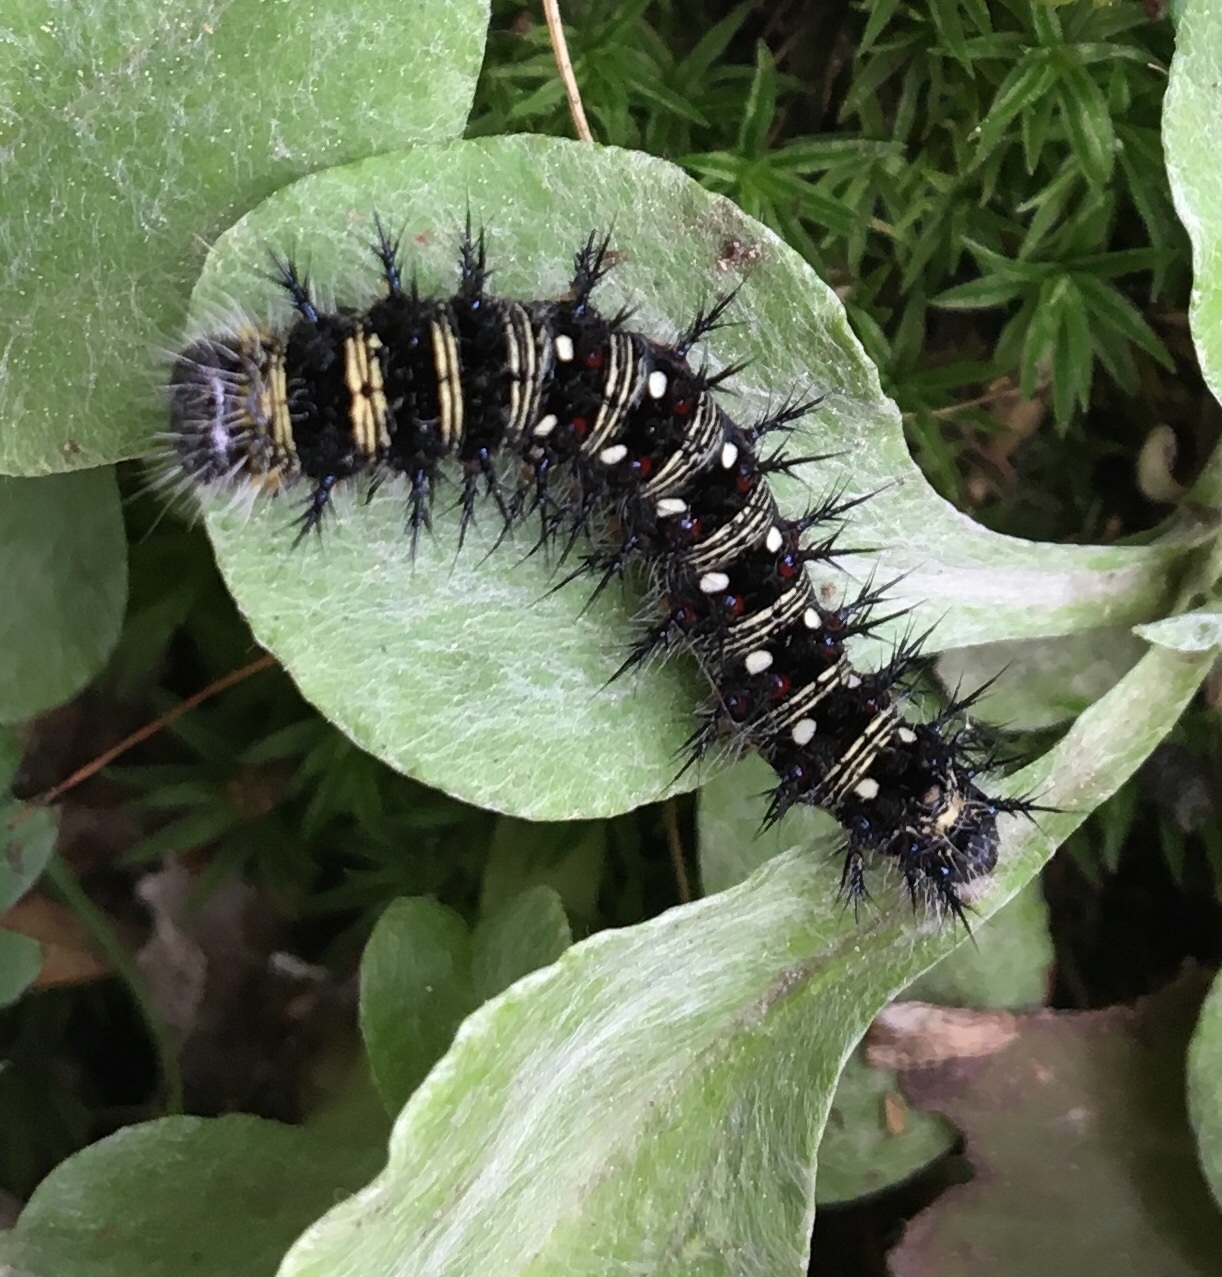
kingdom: Animalia
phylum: Arthropoda
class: Insecta
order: Lepidoptera
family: Nymphalidae
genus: Vanessa
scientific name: Vanessa virginiensis
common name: American lady
